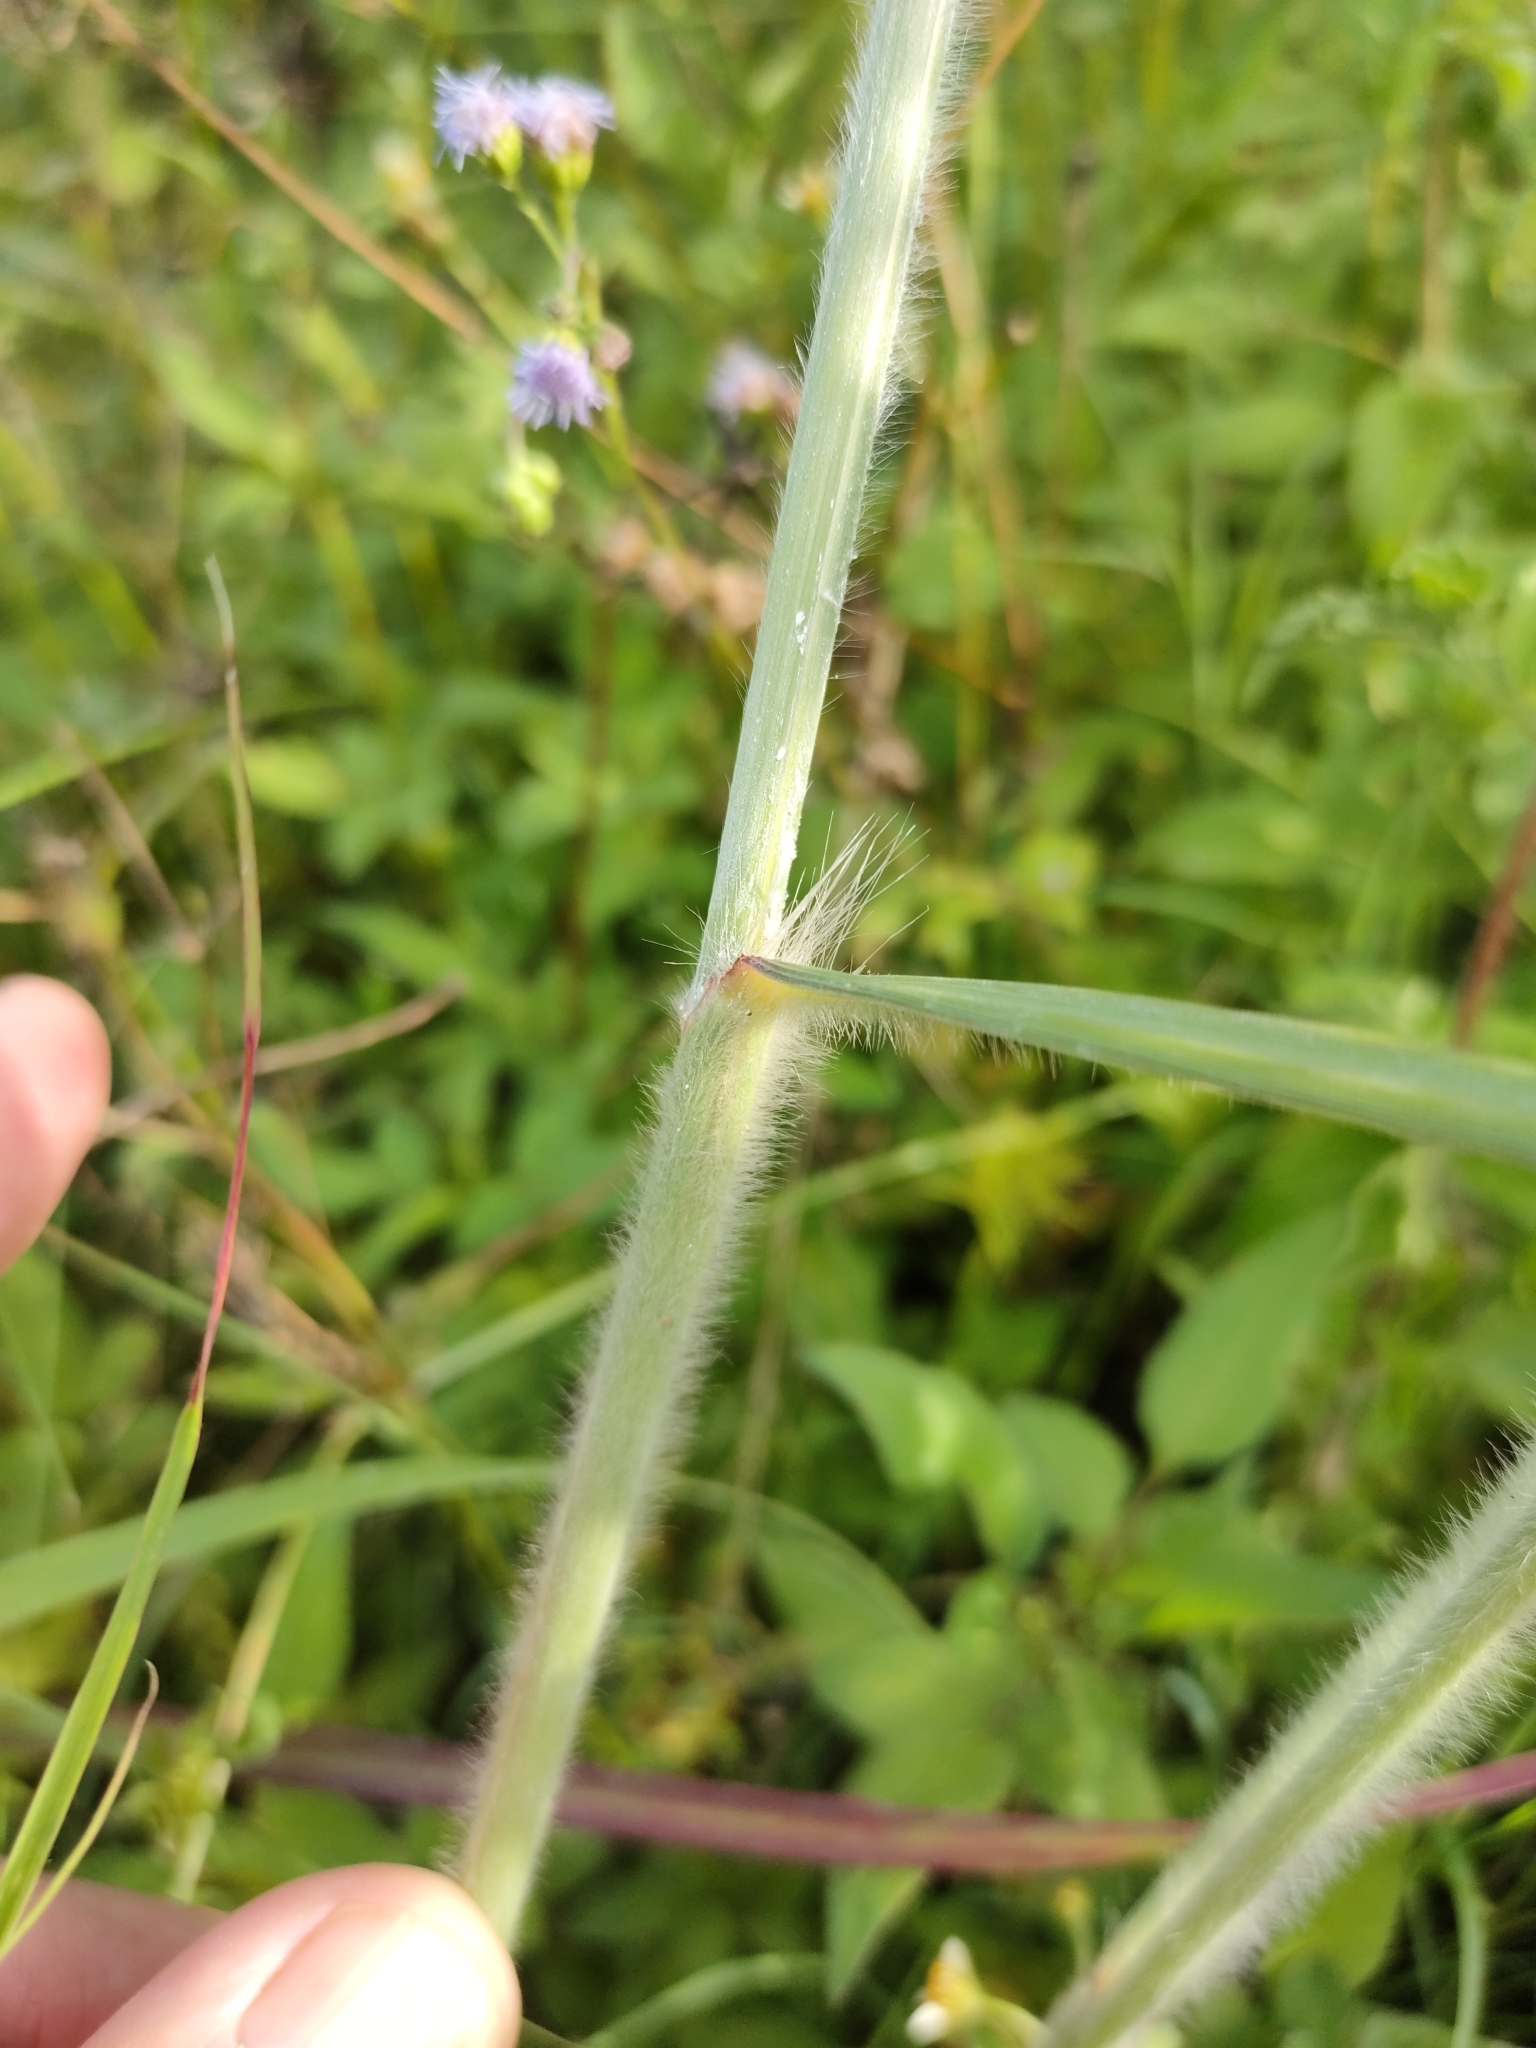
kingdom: Plantae
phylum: Tracheophyta
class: Liliopsida
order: Poales
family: Poaceae
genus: Capillipedium
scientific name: Capillipedium spicigerum
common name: Scented-top grass
